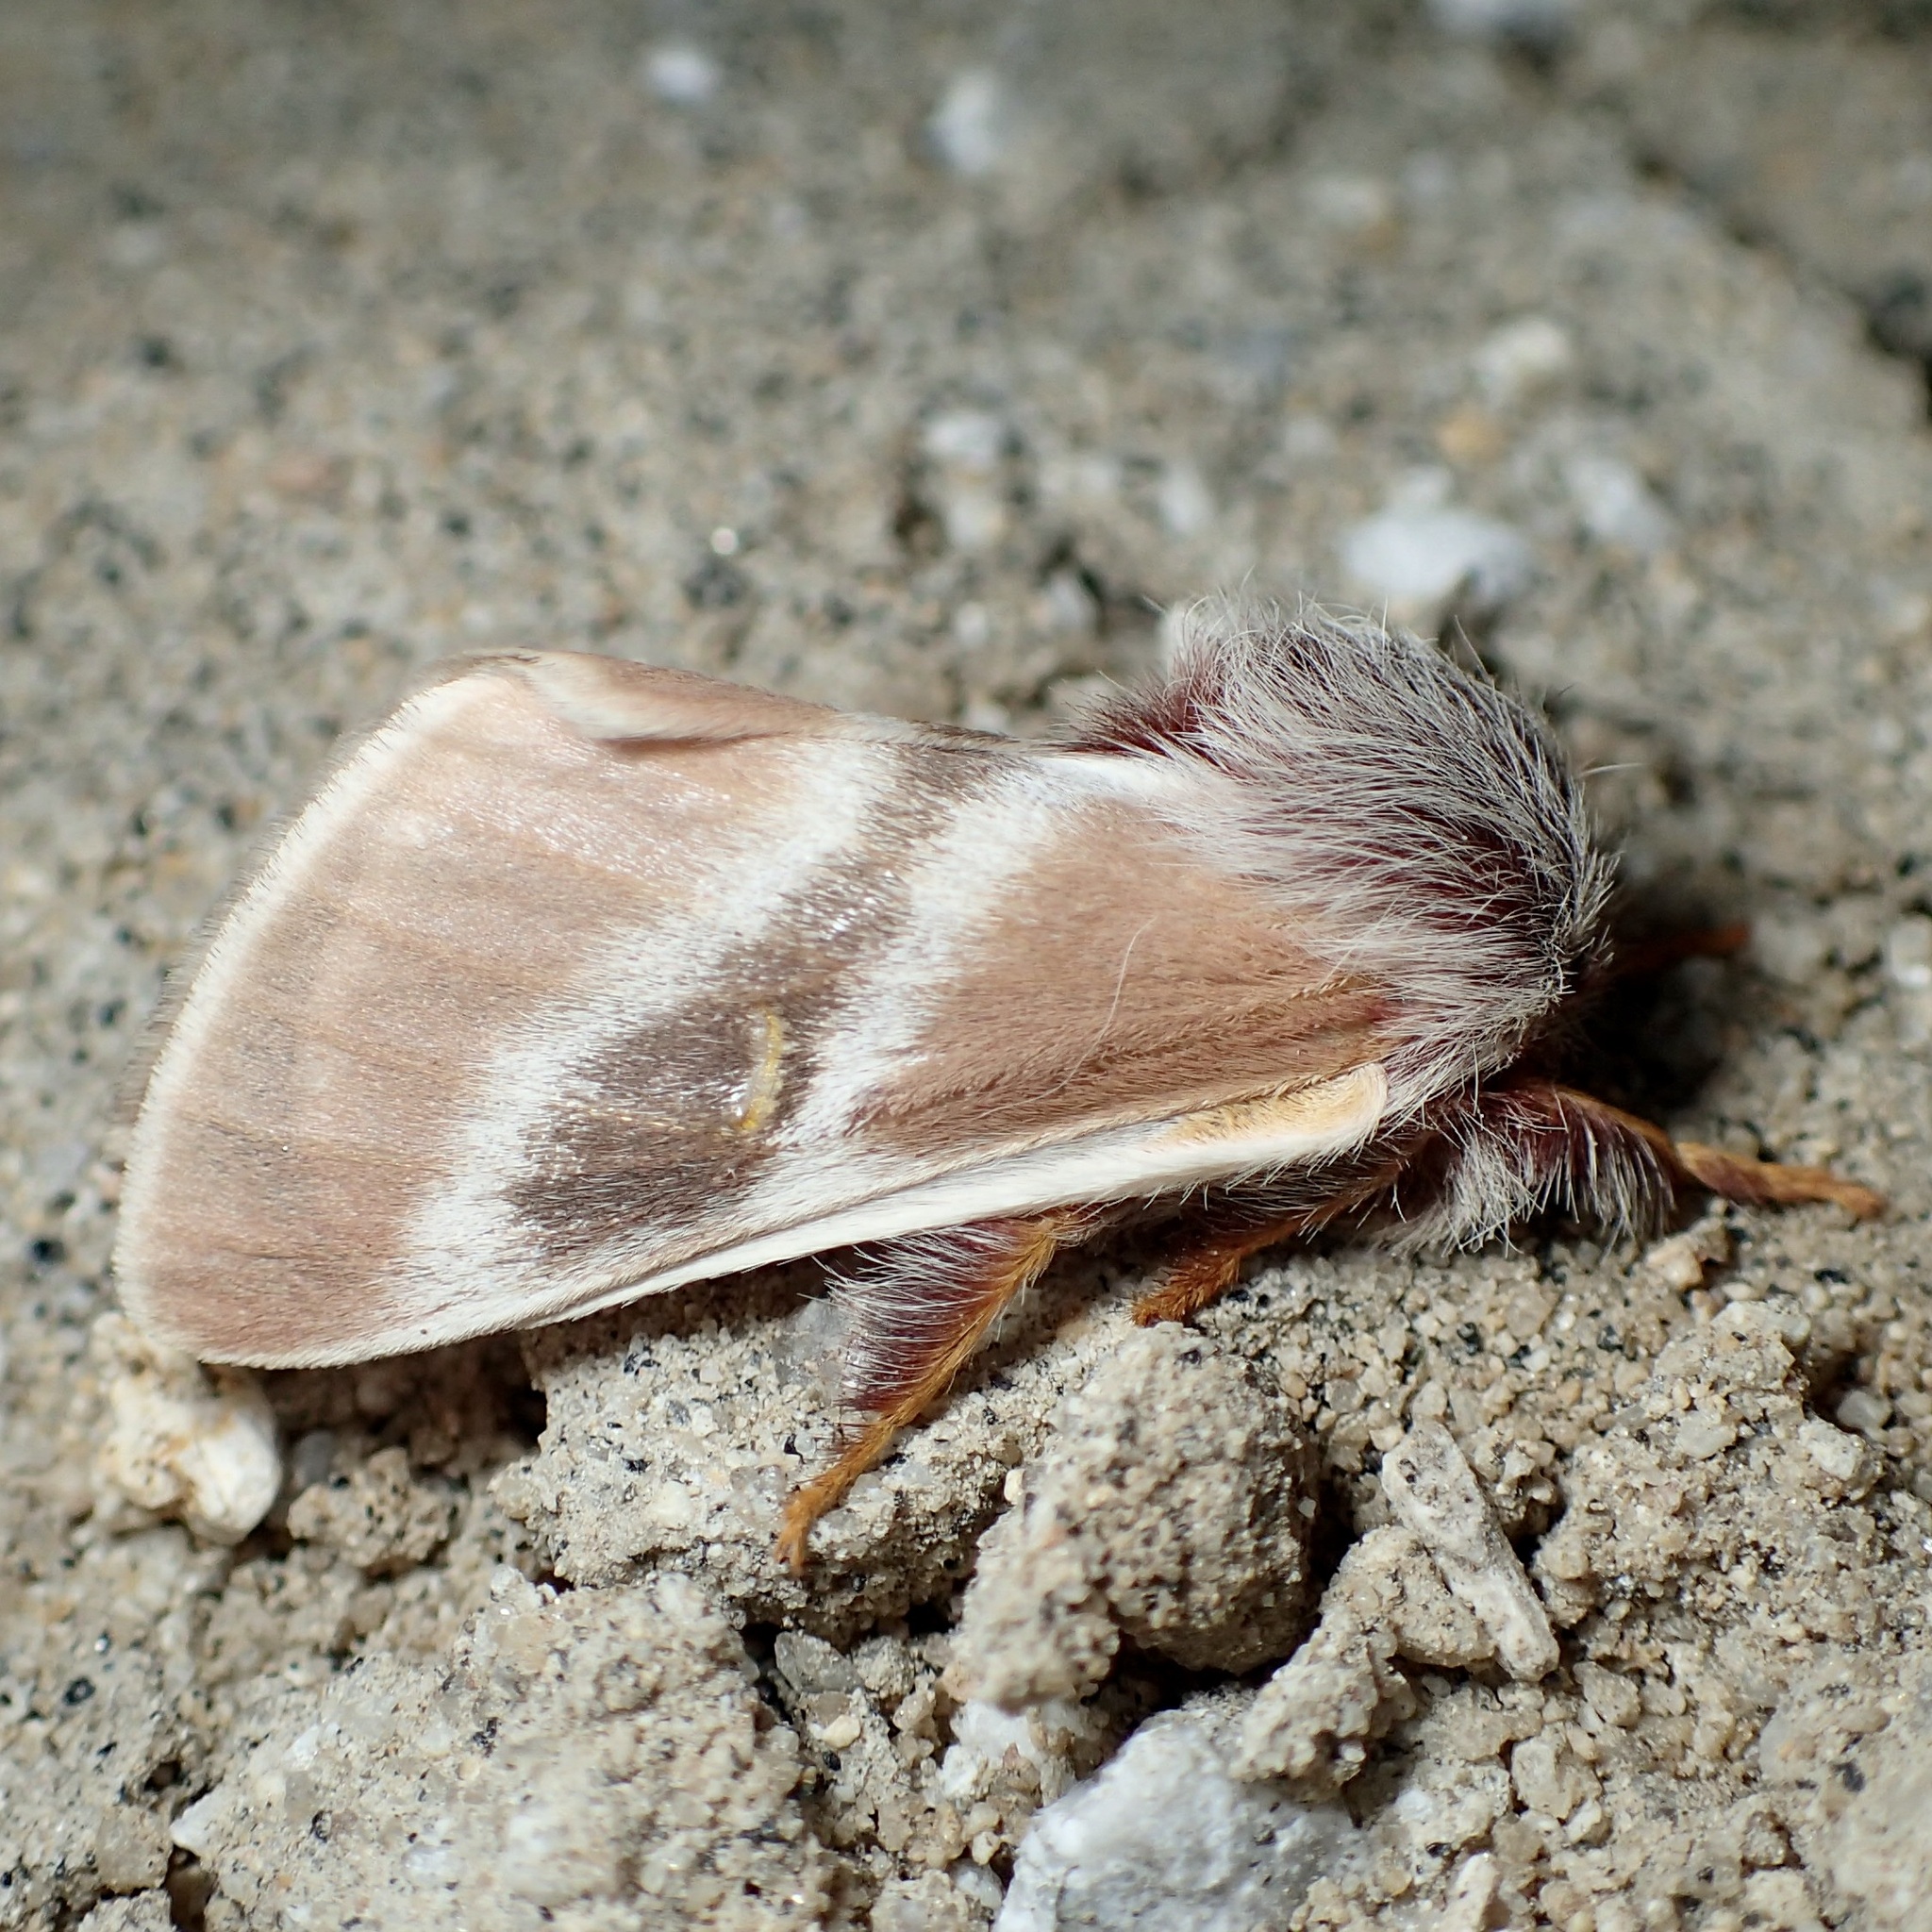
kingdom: Animalia
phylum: Arthropoda
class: Insecta
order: Lepidoptera
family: Saturniidae
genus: Hemileuca
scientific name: Hemileuca sororius
